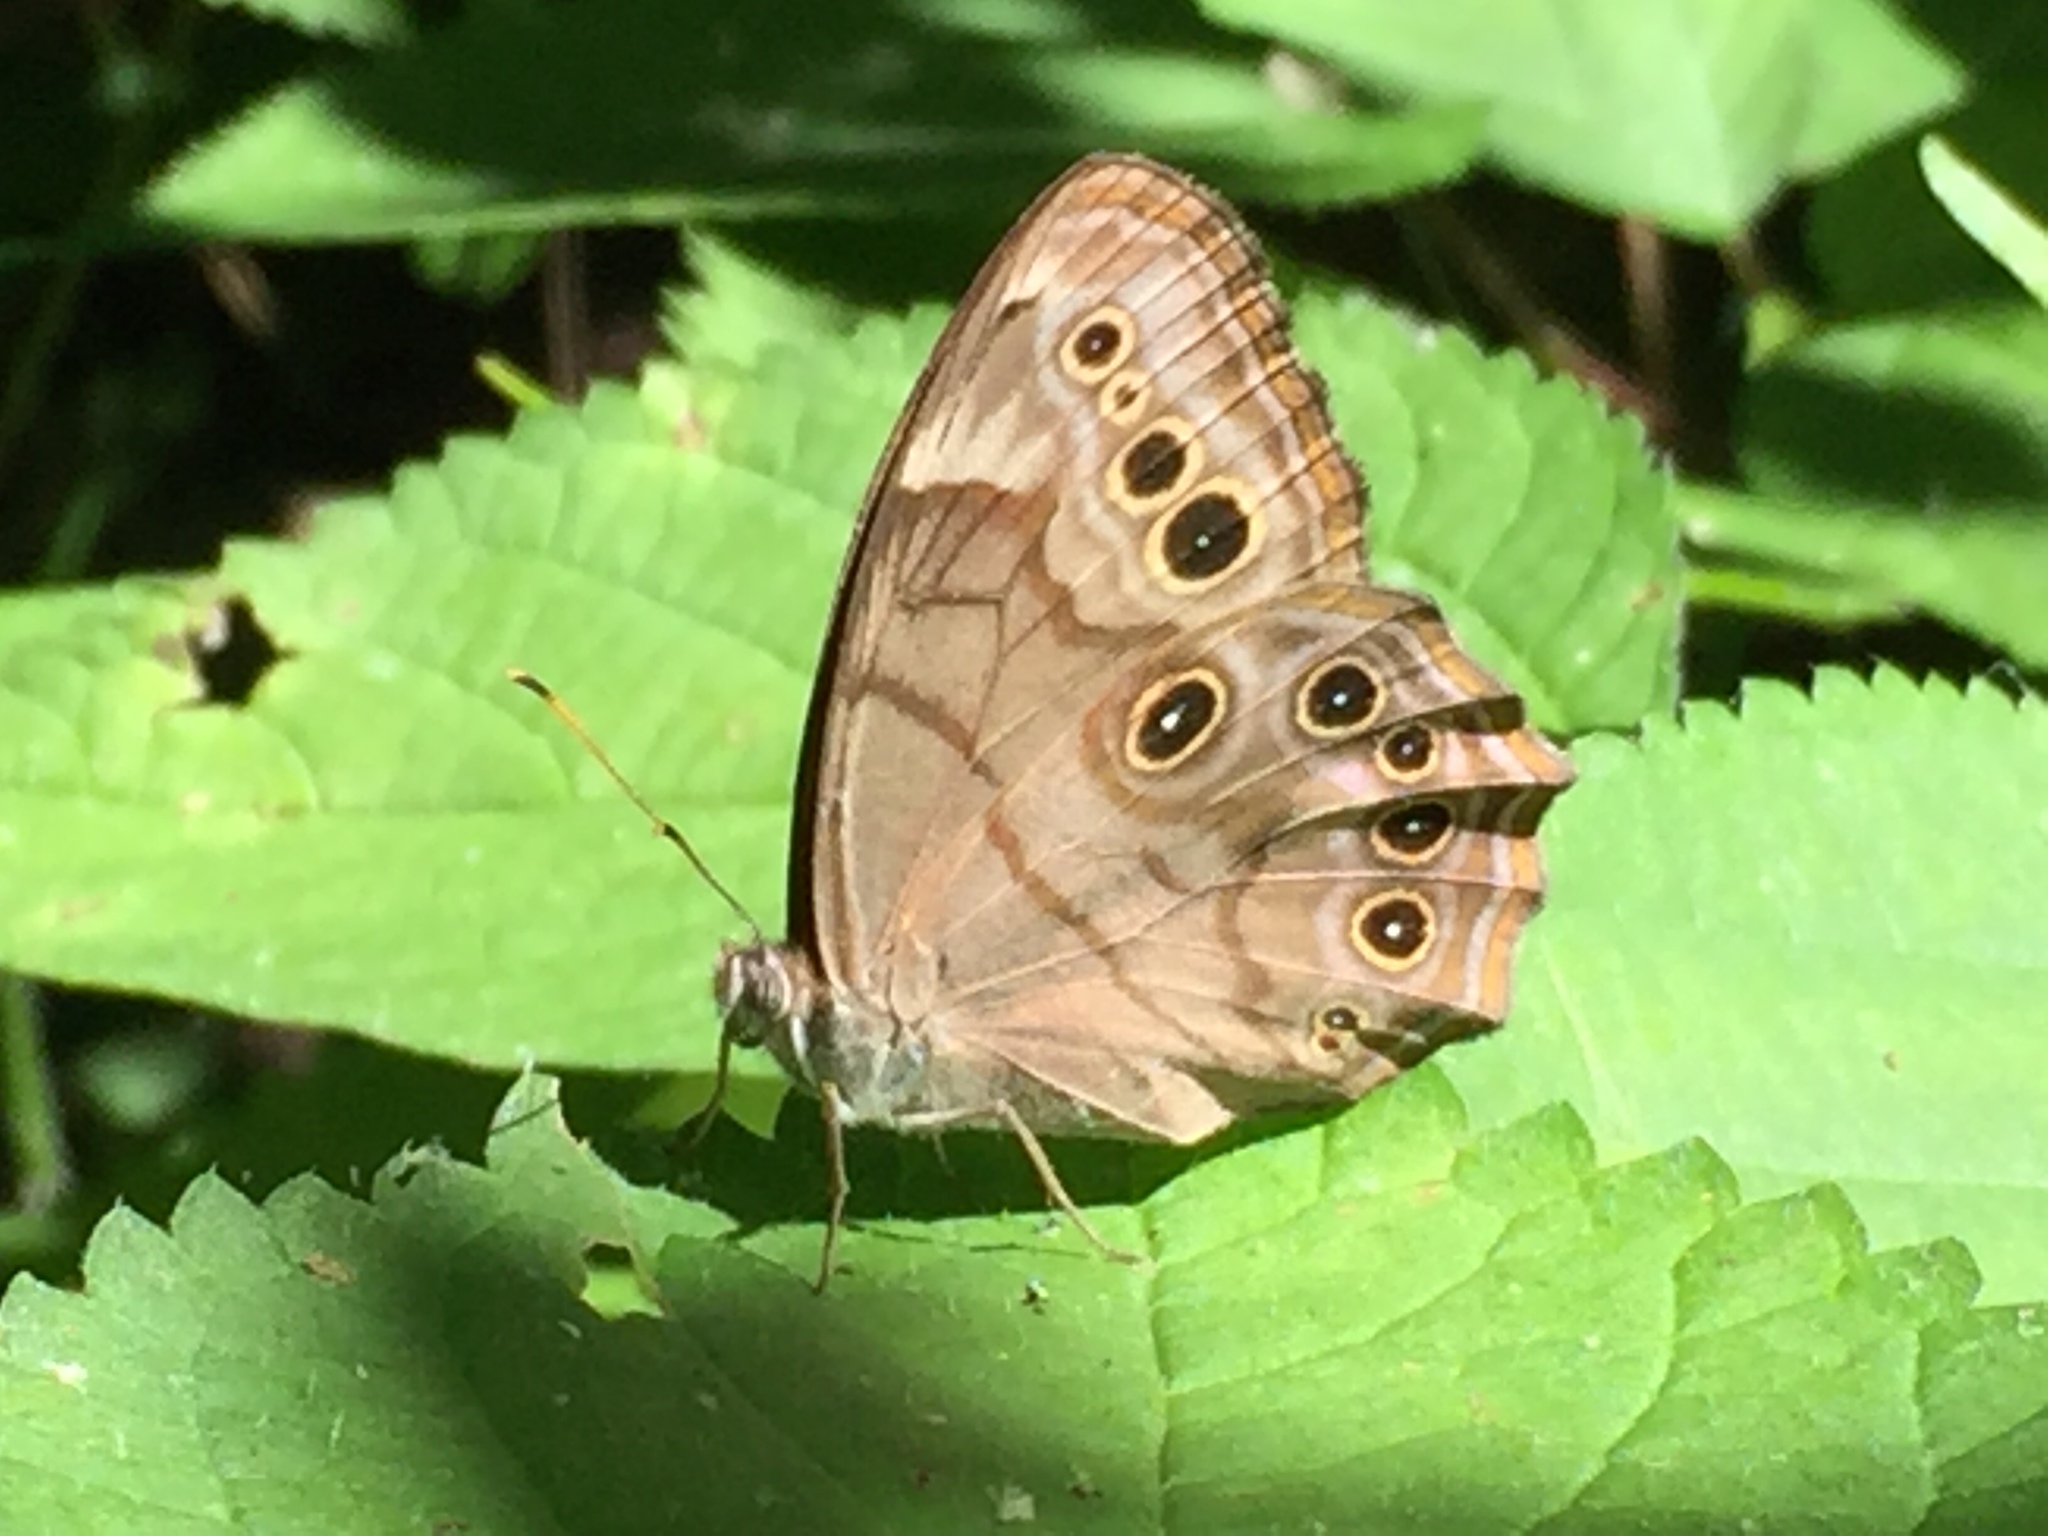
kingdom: Animalia
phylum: Arthropoda
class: Insecta
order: Lepidoptera
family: Nymphalidae
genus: Lethe
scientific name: Lethe anthedon
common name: Northern pearly-eye
